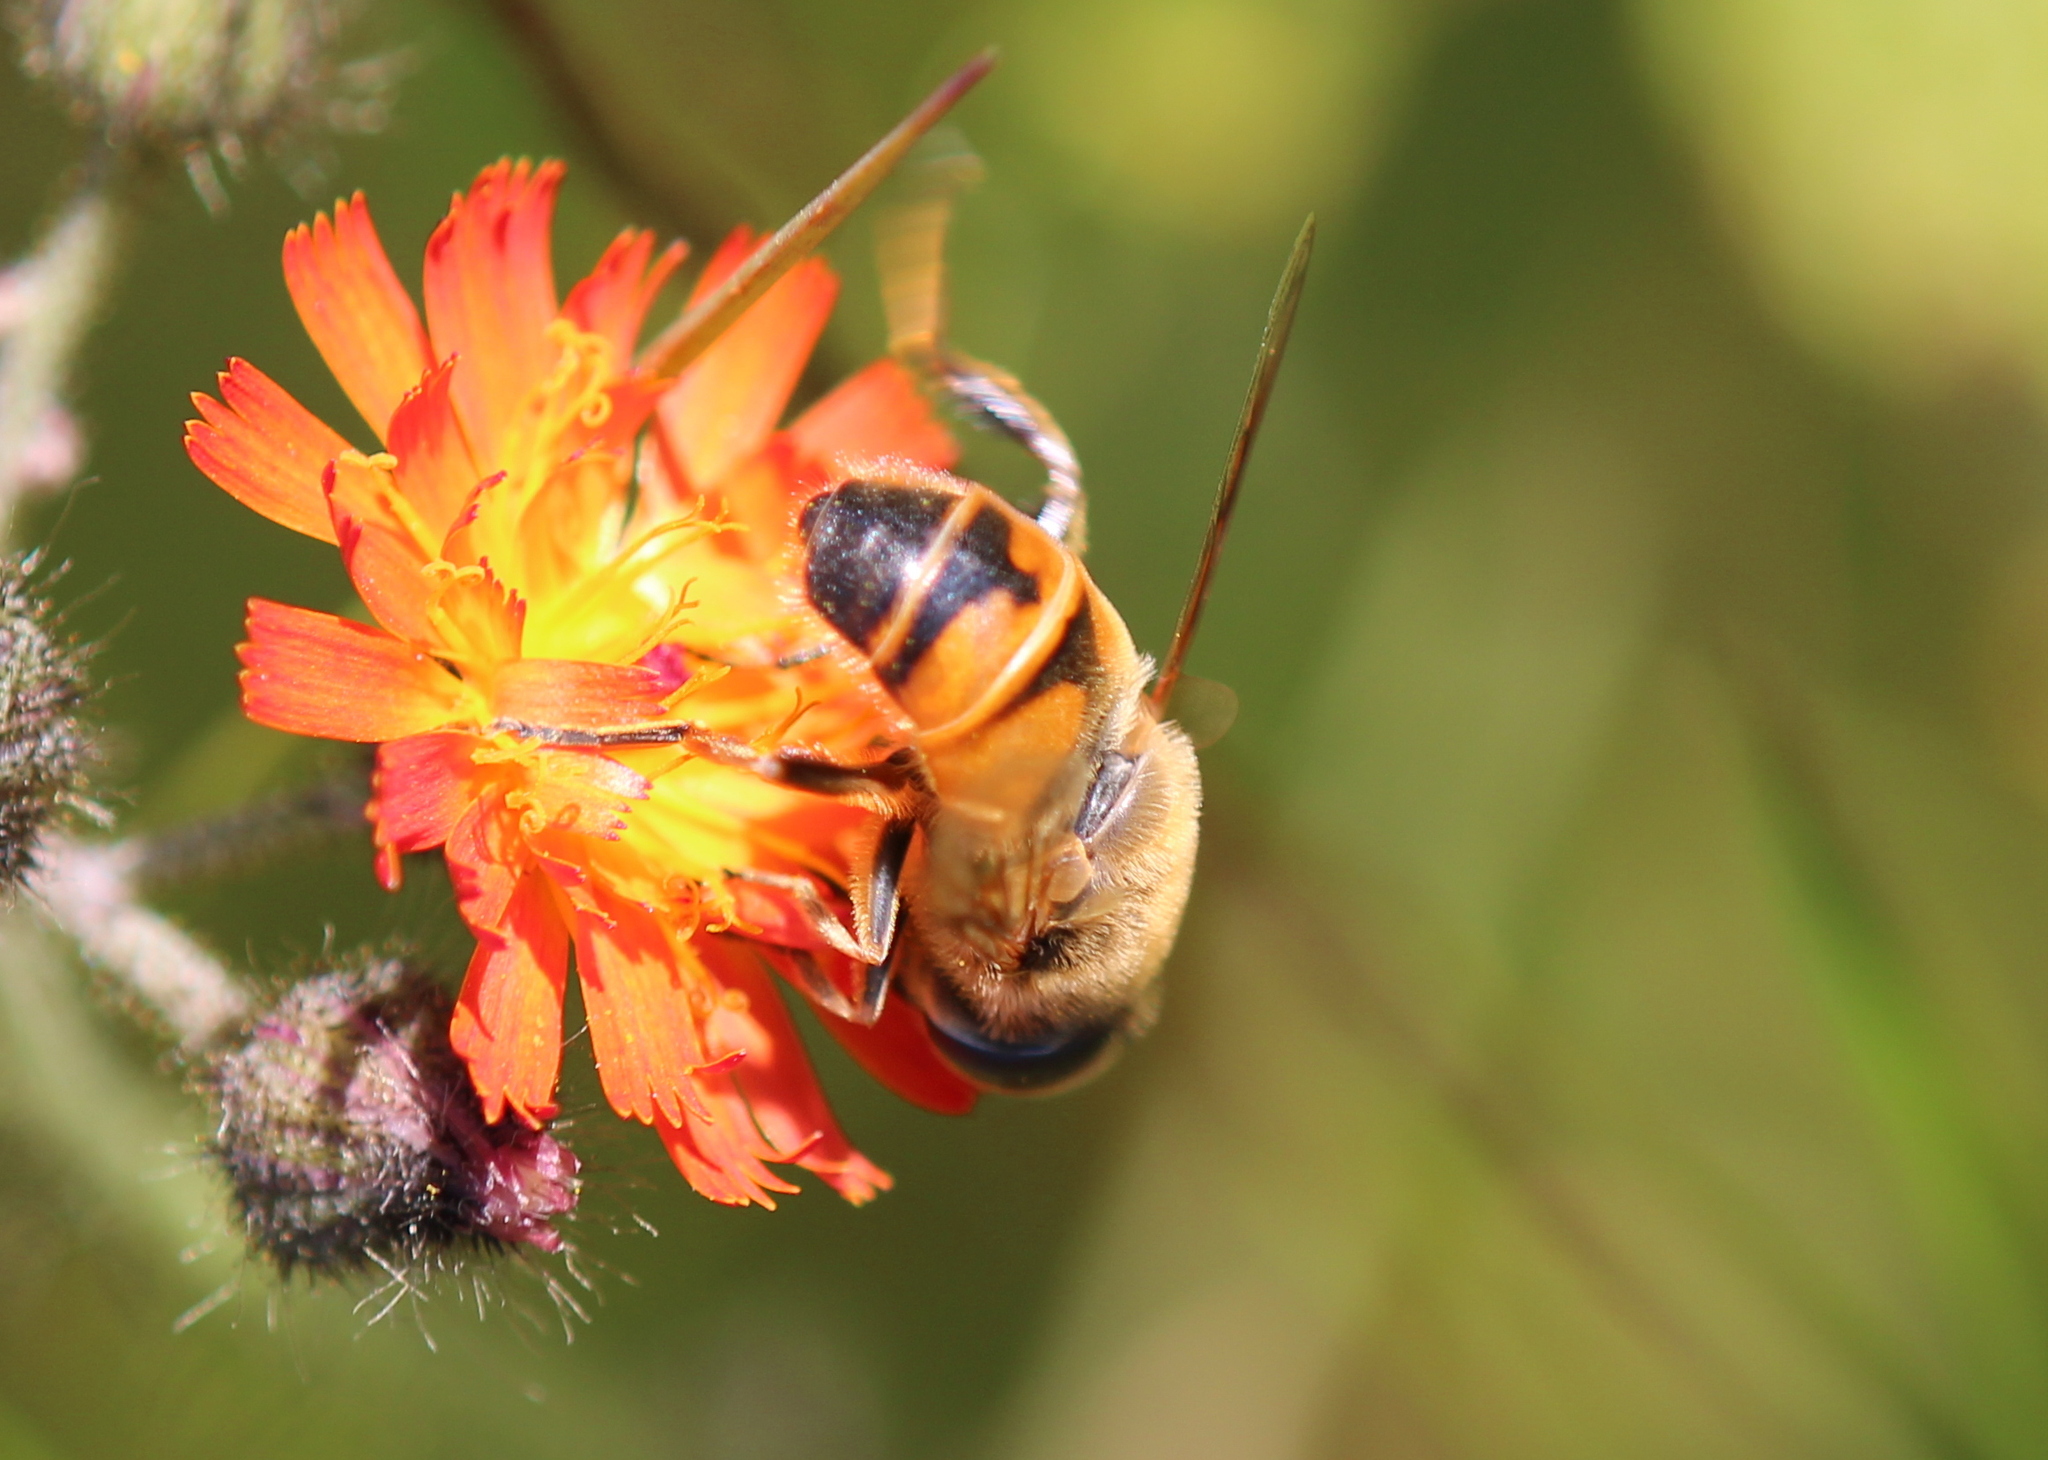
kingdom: Animalia
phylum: Arthropoda
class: Insecta
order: Diptera
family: Syrphidae
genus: Eristalis
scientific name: Eristalis tenax
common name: Drone fly
